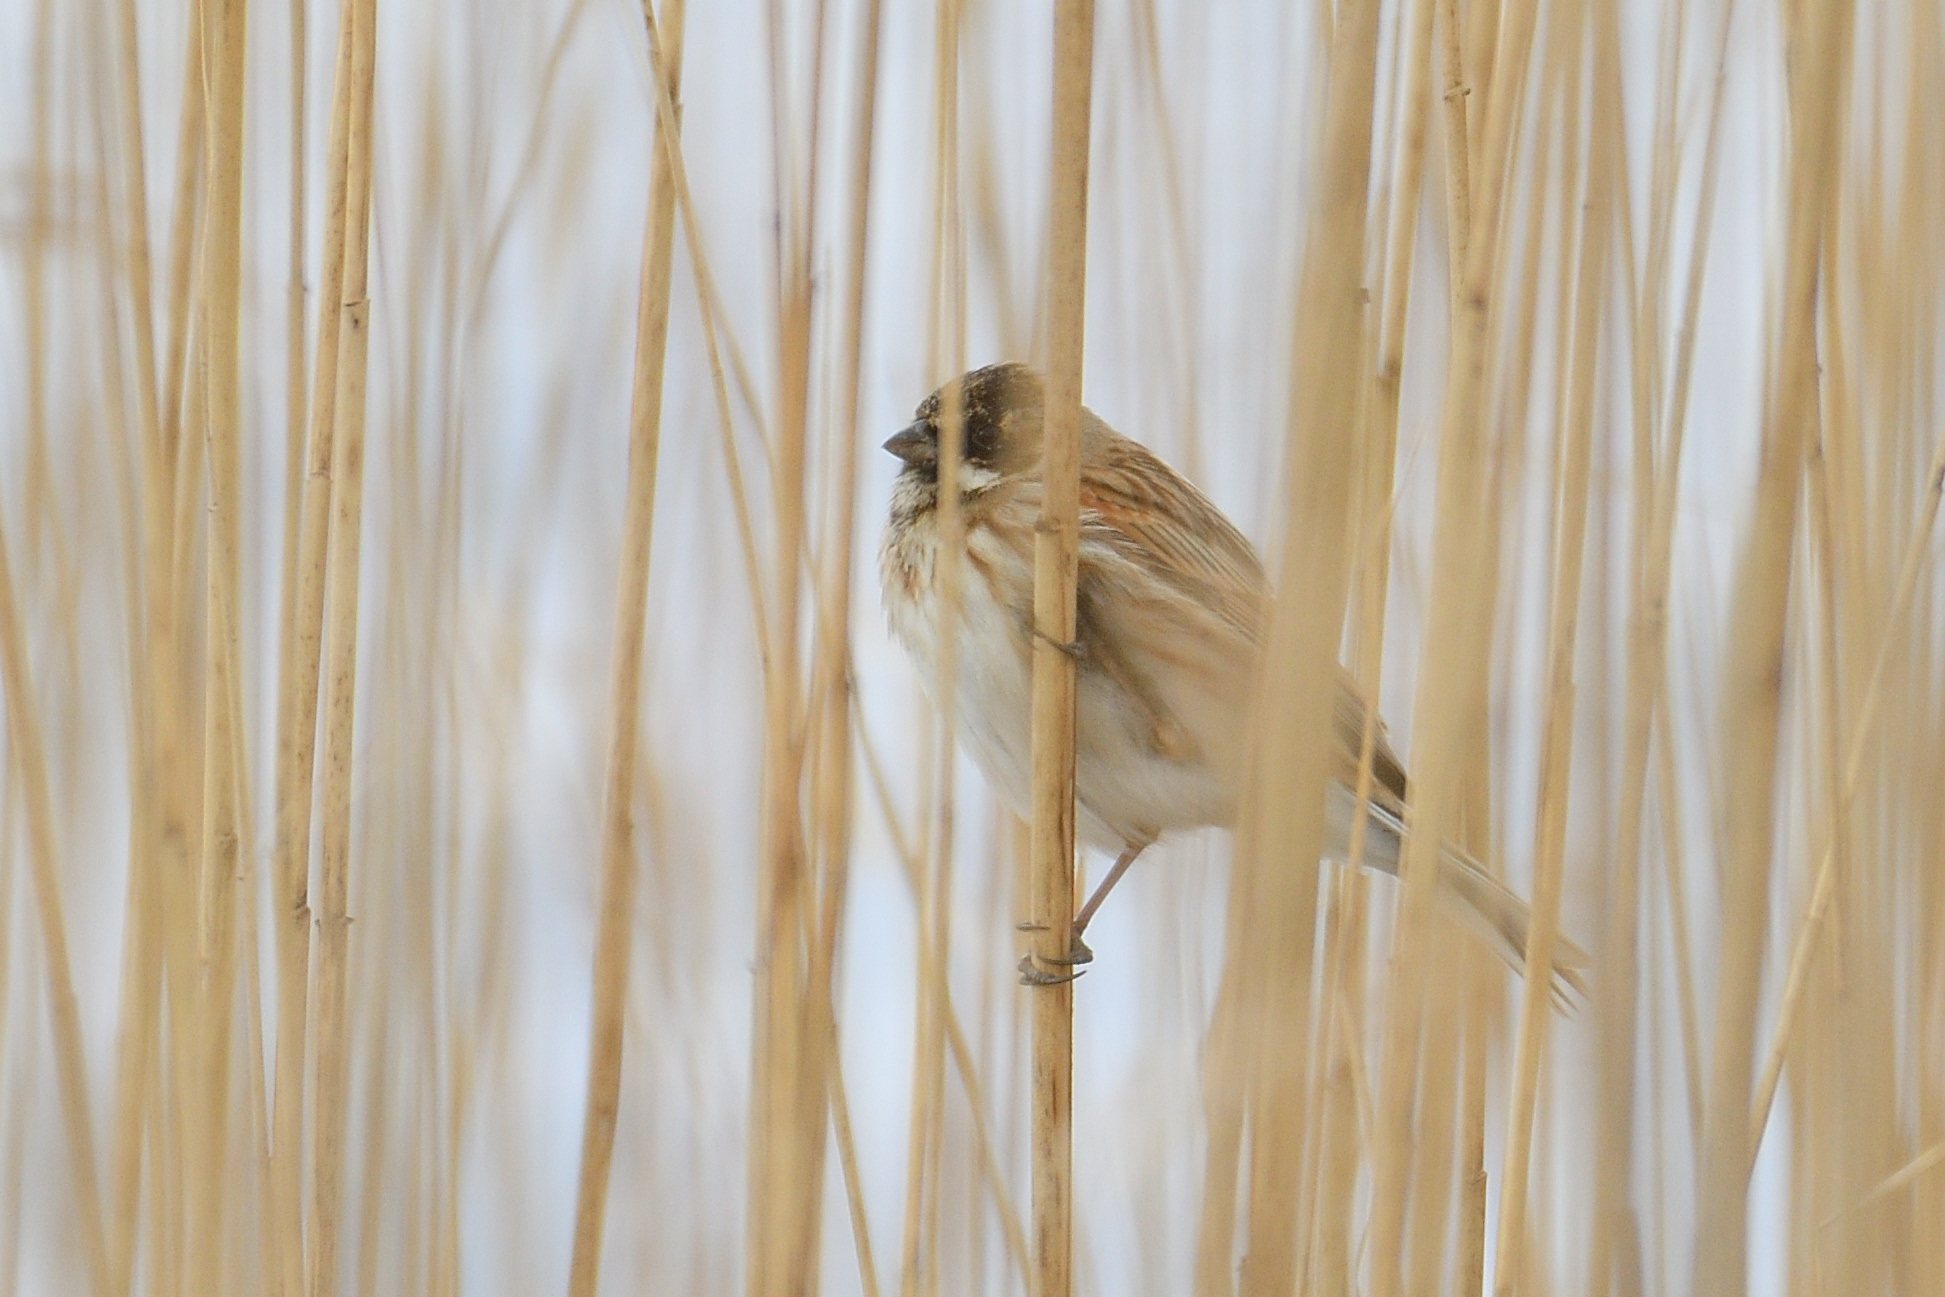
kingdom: Animalia
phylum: Chordata
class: Aves
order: Passeriformes
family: Emberizidae
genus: Emberiza
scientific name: Emberiza schoeniclus
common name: Reed bunting
